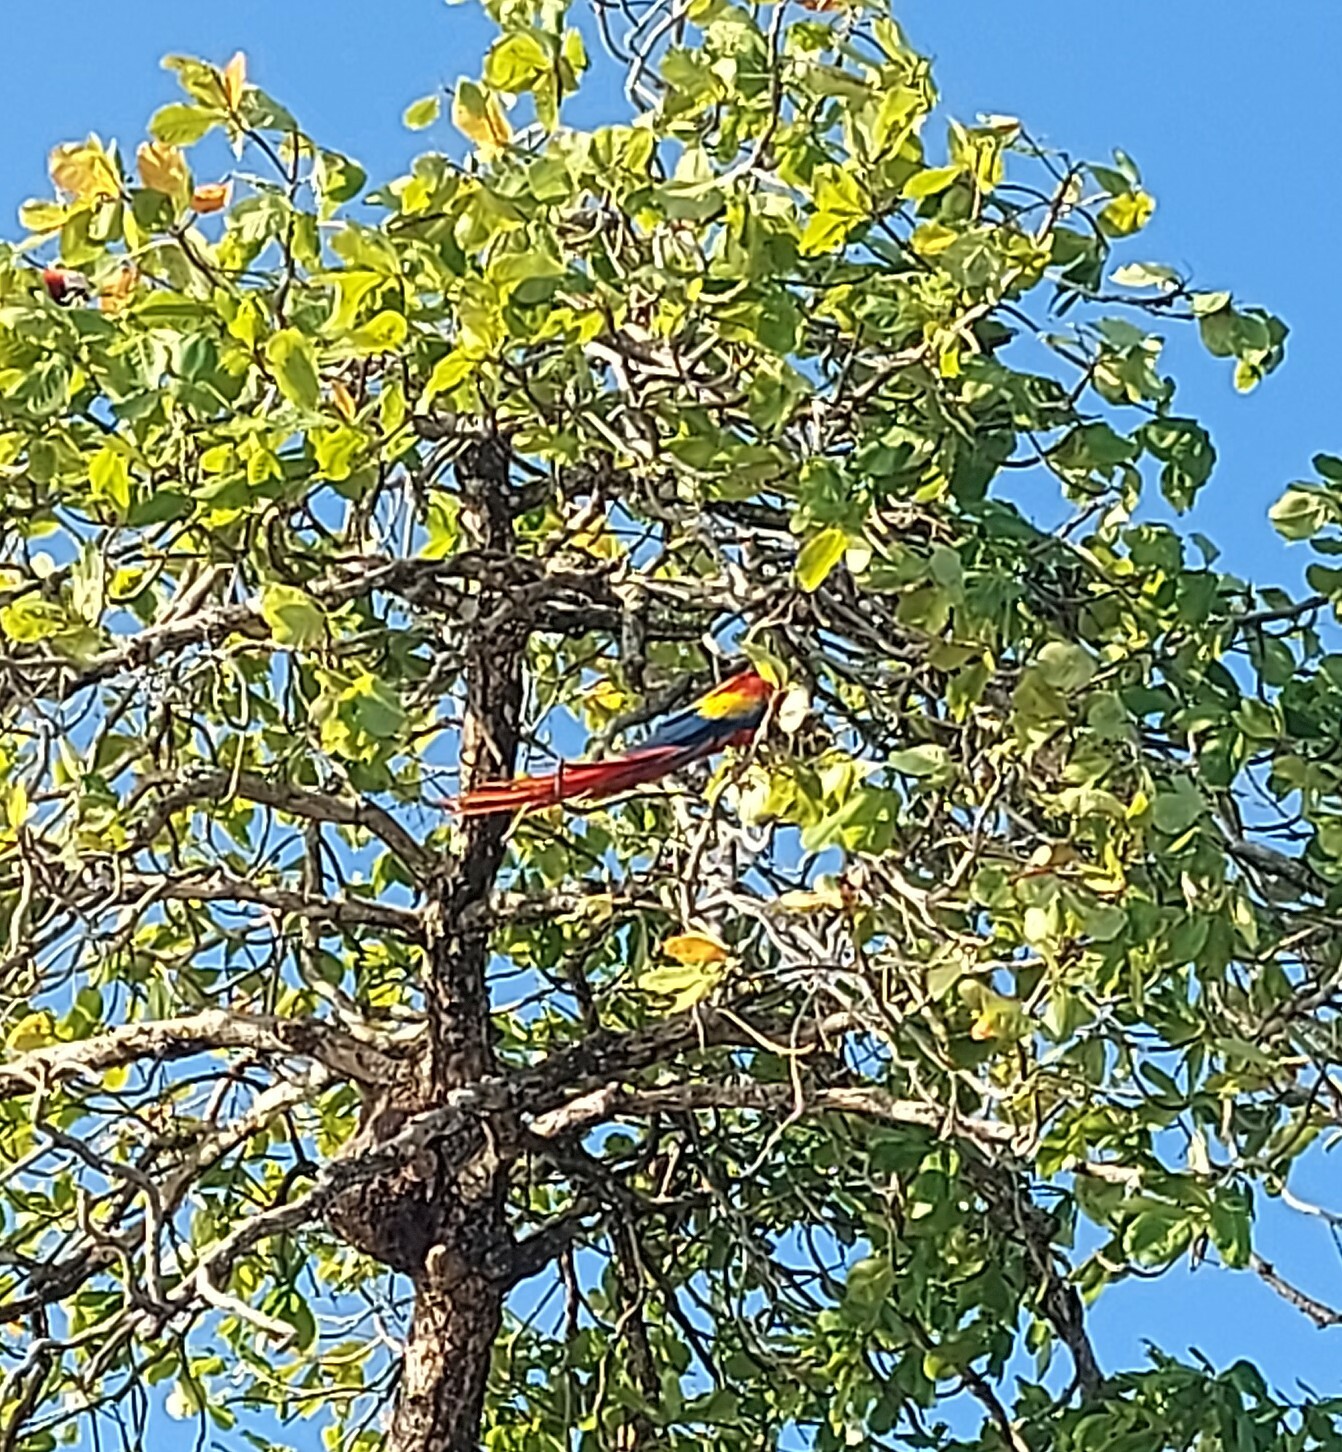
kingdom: Animalia
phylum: Chordata
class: Aves
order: Psittaciformes
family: Psittacidae
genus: Ara
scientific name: Ara macao
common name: Scarlet macaw
